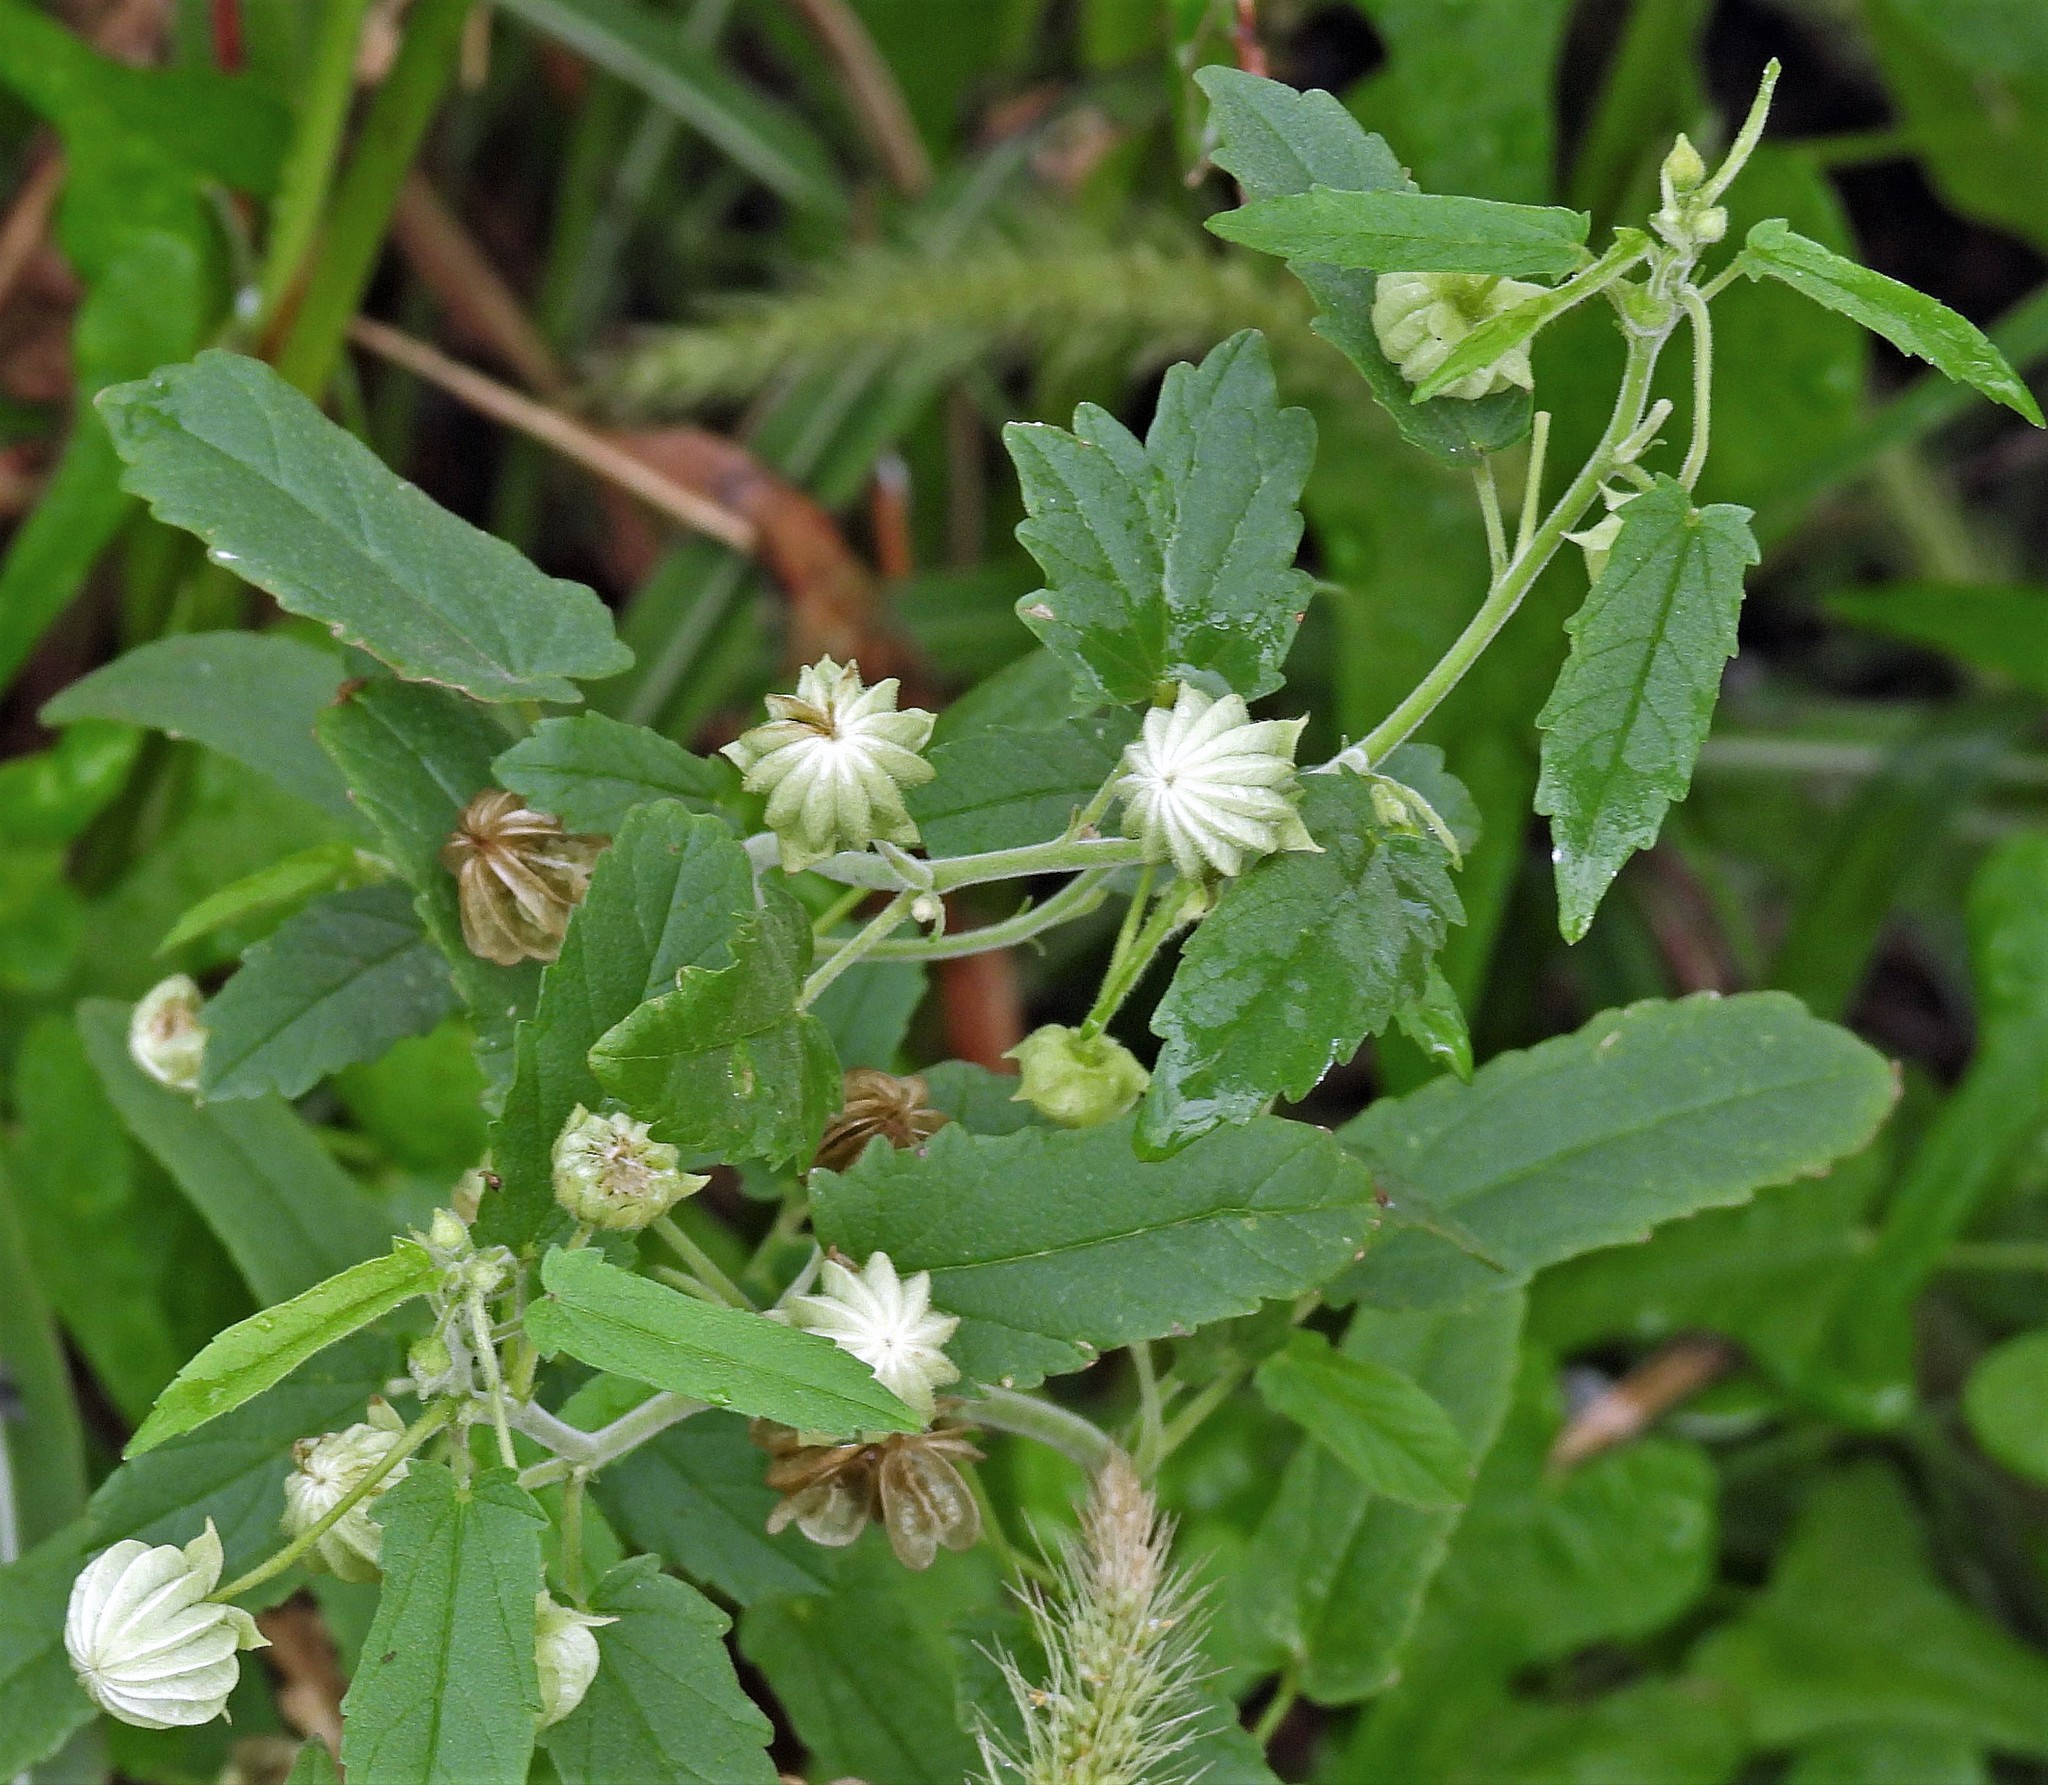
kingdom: Plantae
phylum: Tracheophyta
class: Magnoliopsida
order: Malvales
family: Malvaceae
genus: Gaya
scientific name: Gaya parviflora
